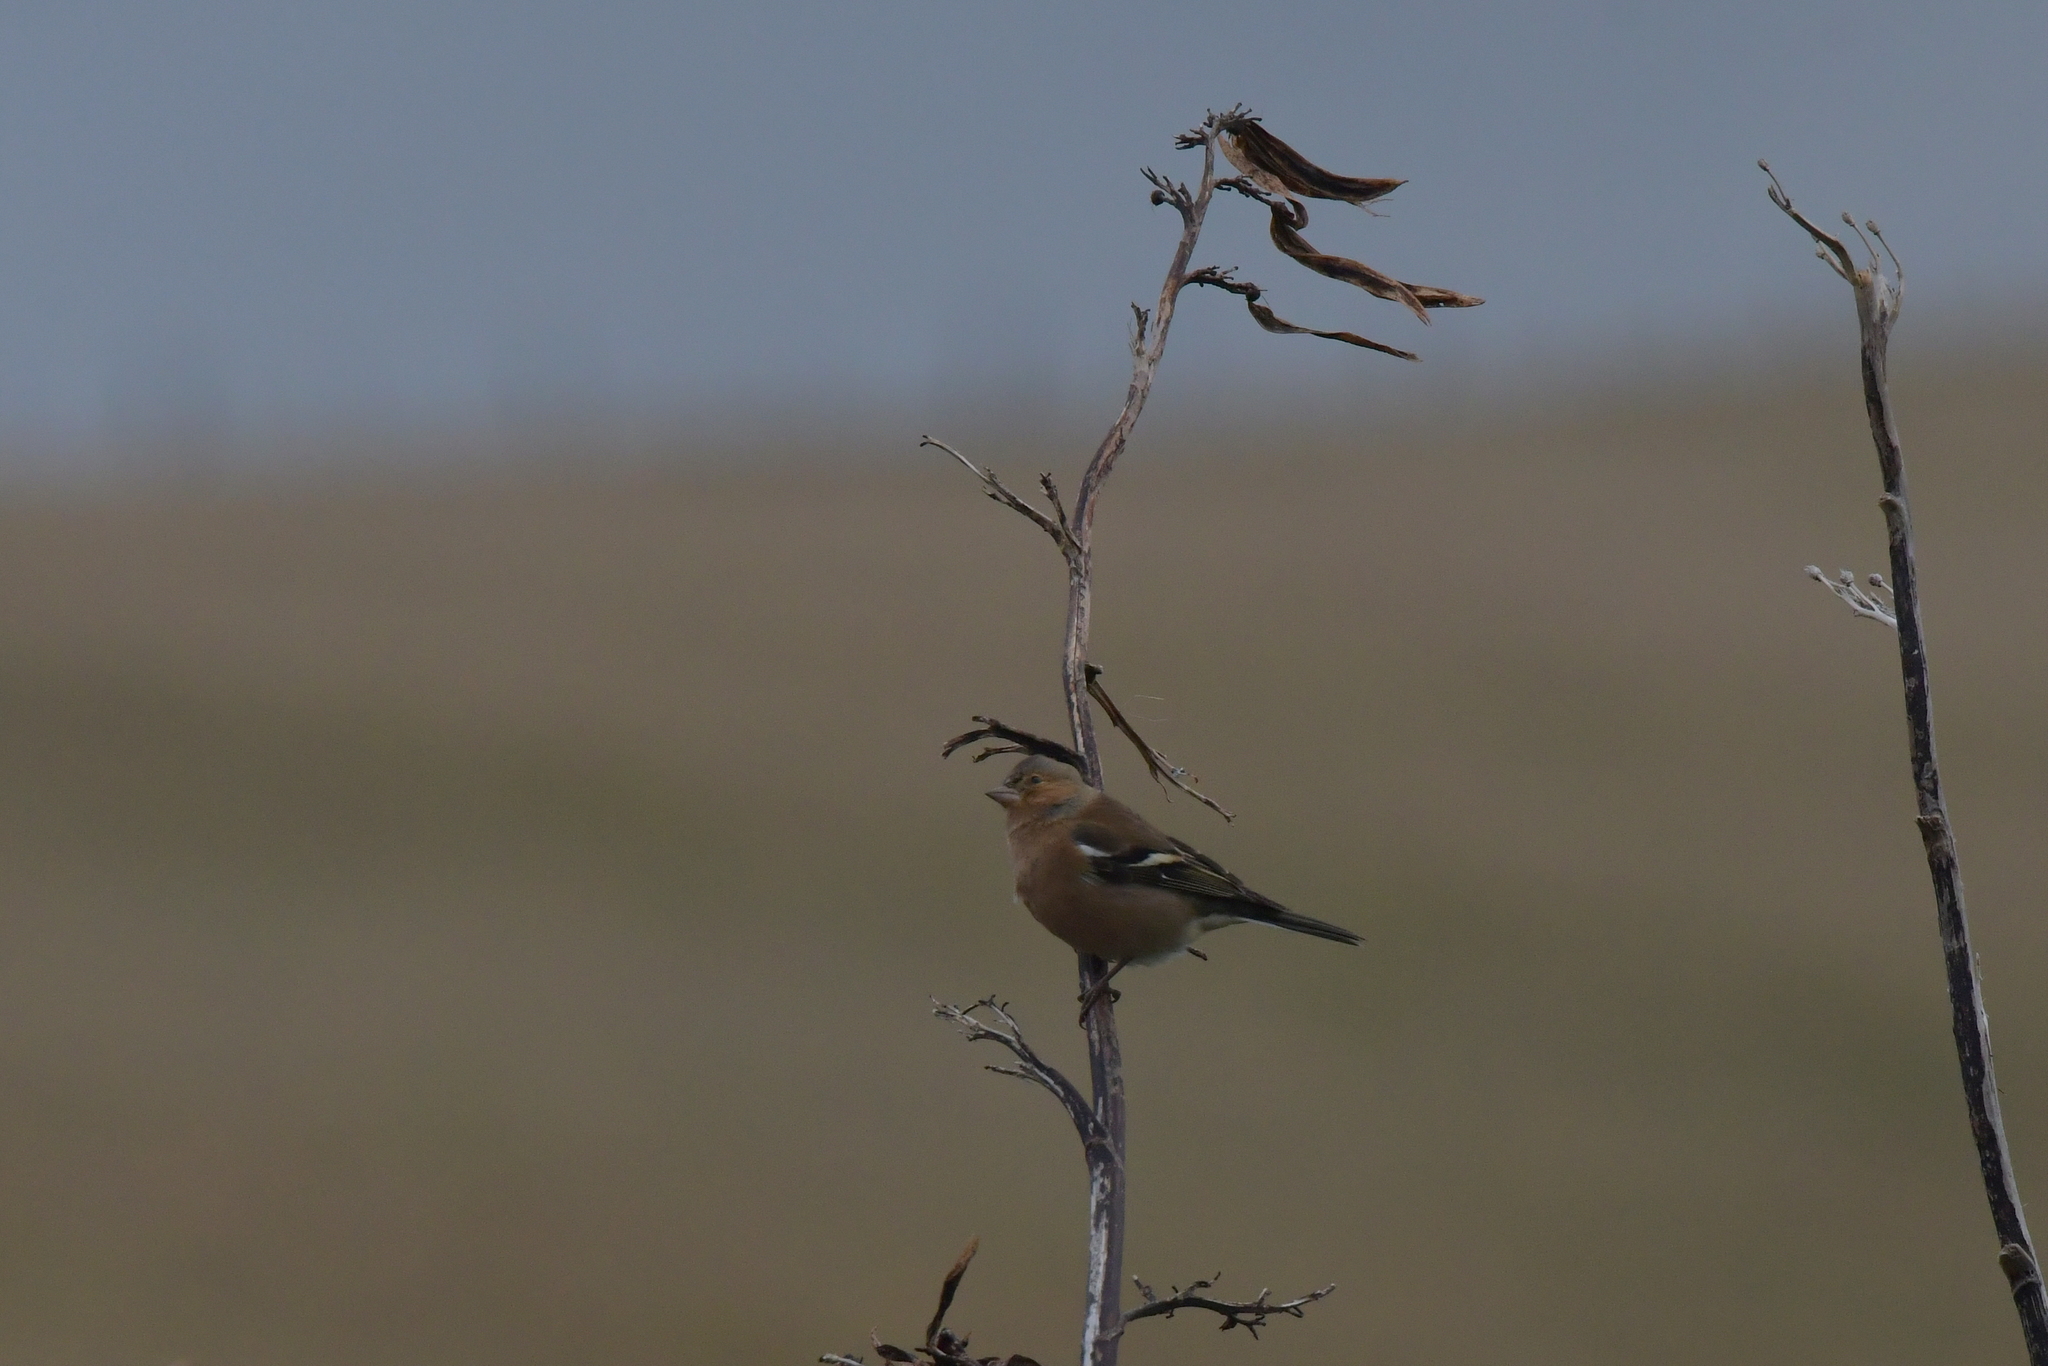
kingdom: Animalia
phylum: Chordata
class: Aves
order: Passeriformes
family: Fringillidae
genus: Fringilla
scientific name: Fringilla coelebs
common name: Common chaffinch
